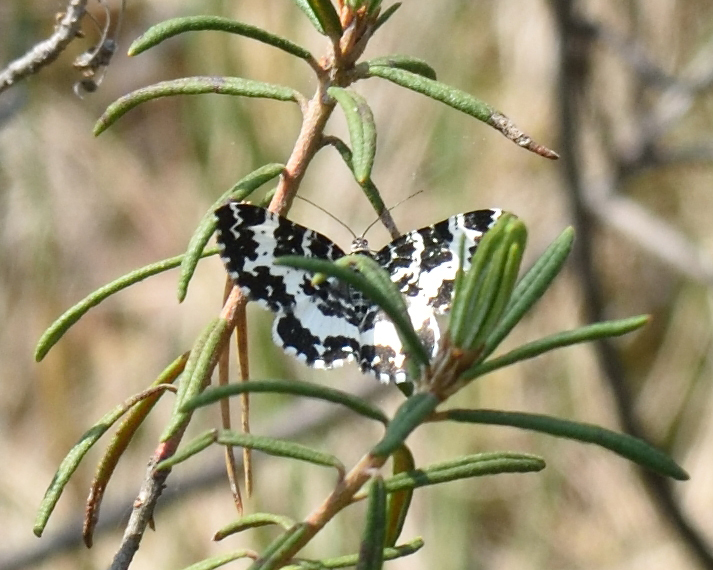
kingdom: Animalia
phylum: Arthropoda
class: Insecta
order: Lepidoptera
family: Geometridae
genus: Rheumaptera
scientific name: Rheumaptera hastata
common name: Argent & sable
